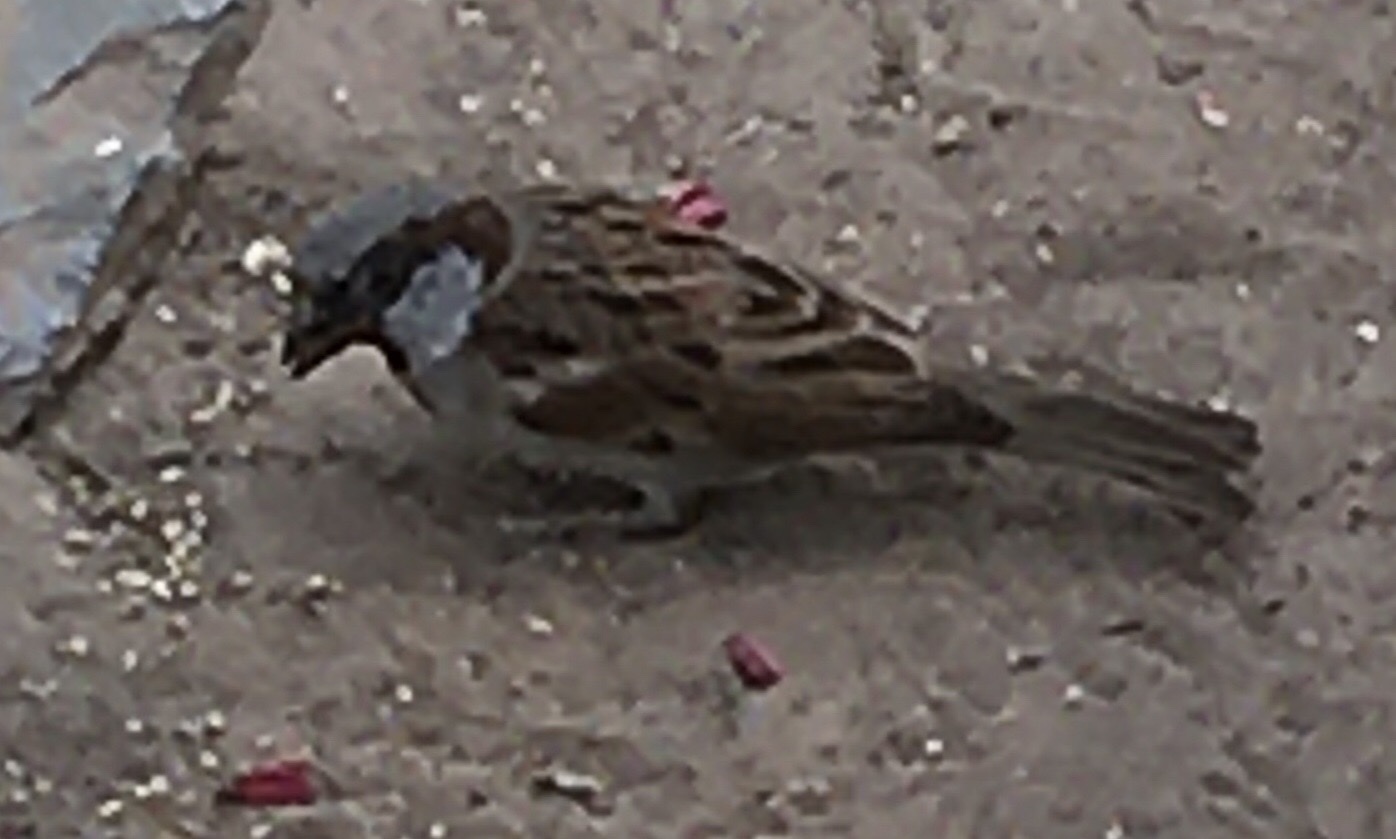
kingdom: Animalia
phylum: Chordata
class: Aves
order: Passeriformes
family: Passeridae
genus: Passer
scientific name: Passer domesticus
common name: House sparrow
